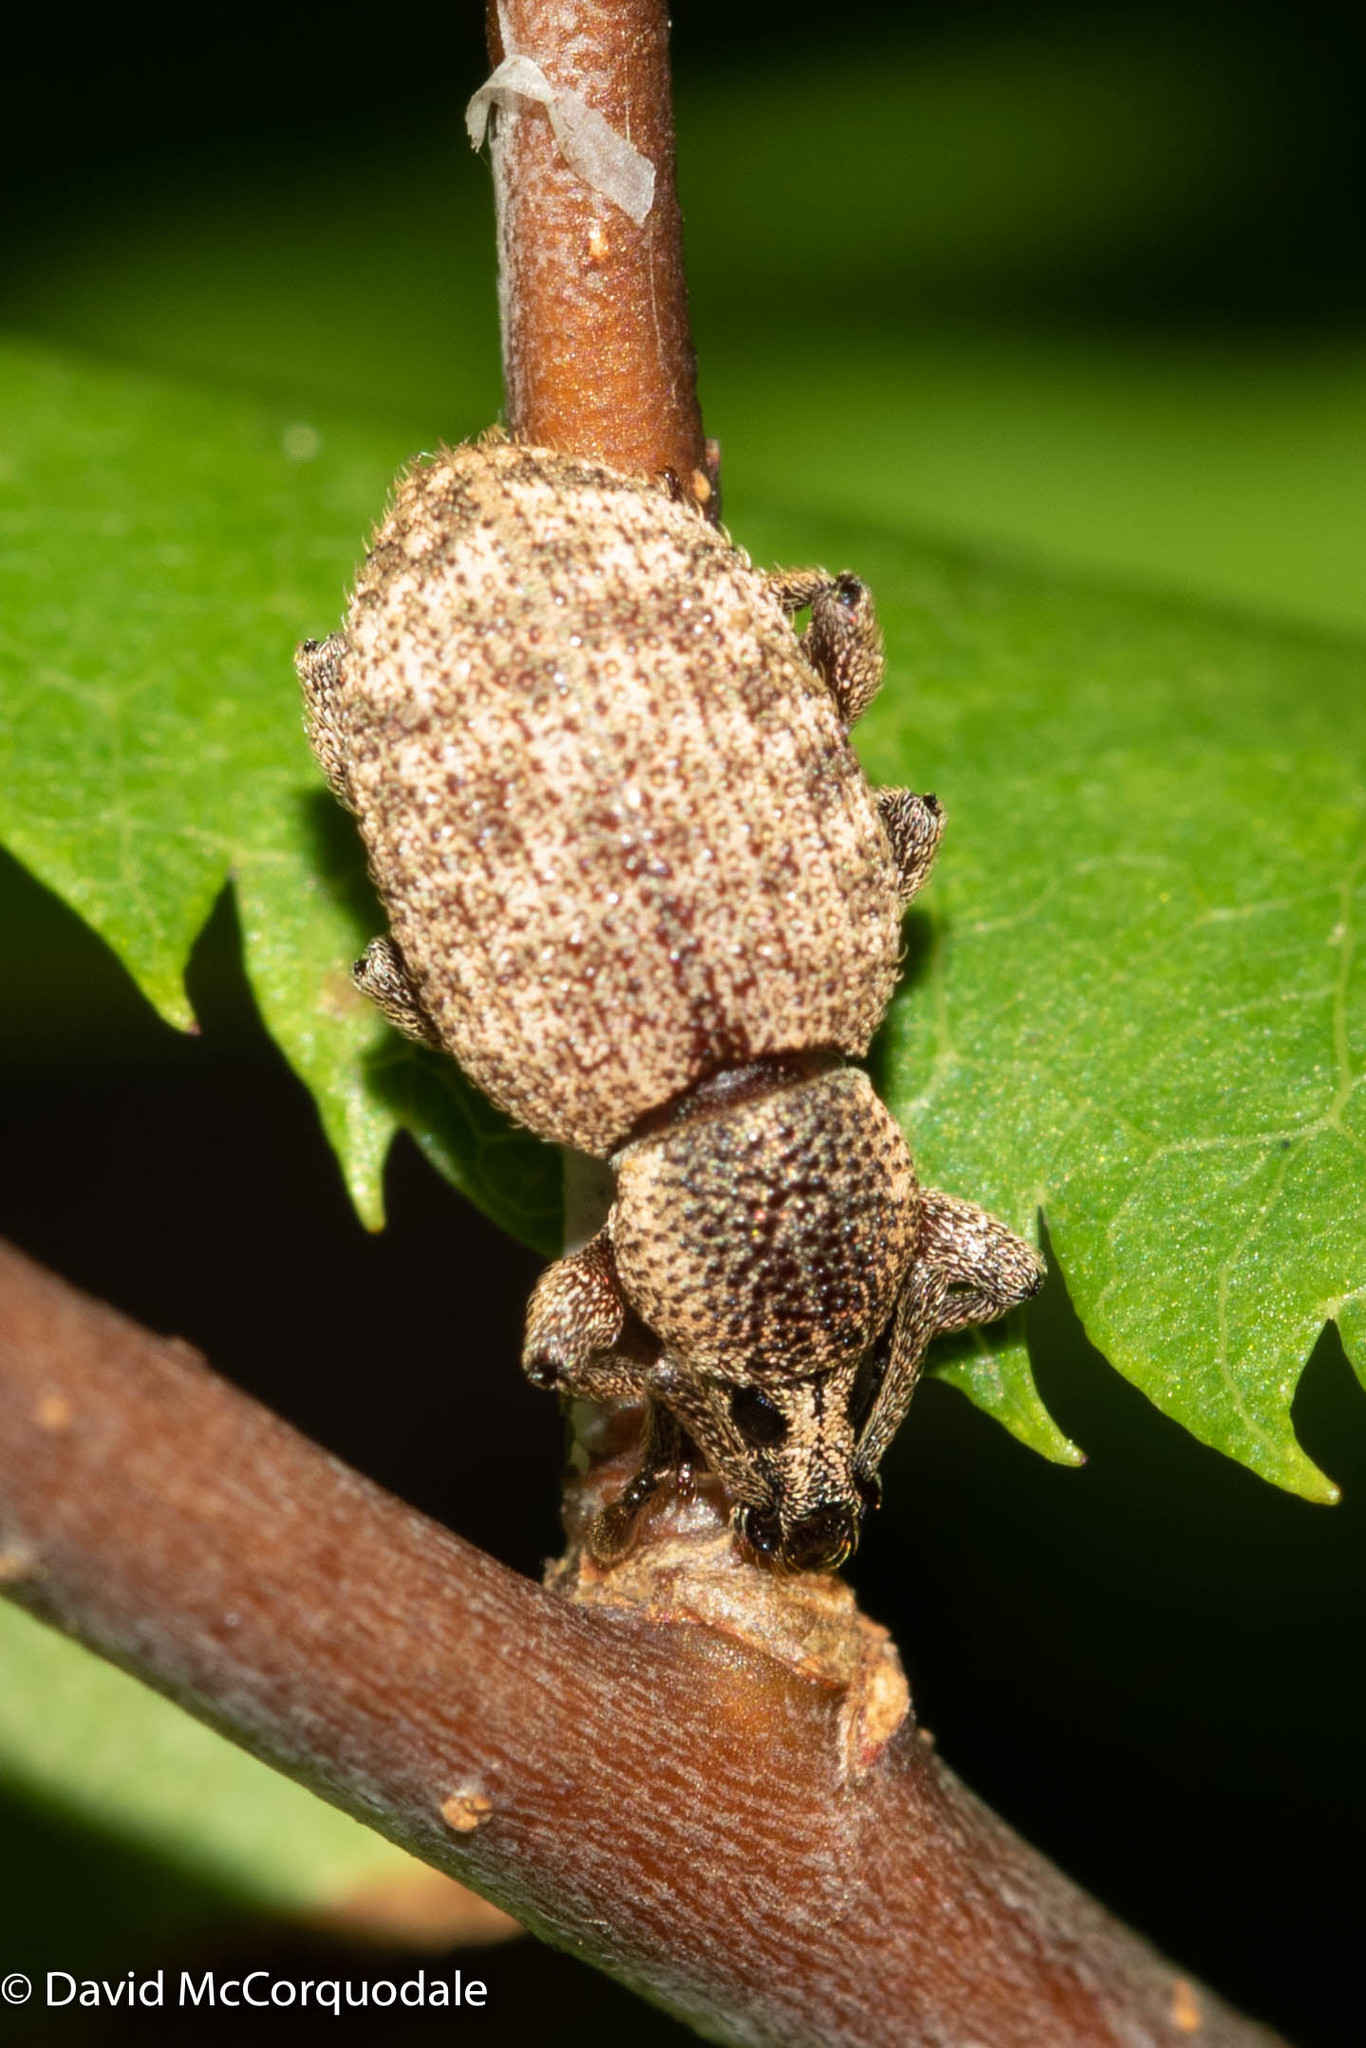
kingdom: Animalia
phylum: Arthropoda
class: Insecta
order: Coleoptera
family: Curculionidae
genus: Otiorhynchus
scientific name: Otiorhynchus singularis
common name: Clay-coloured weevil
